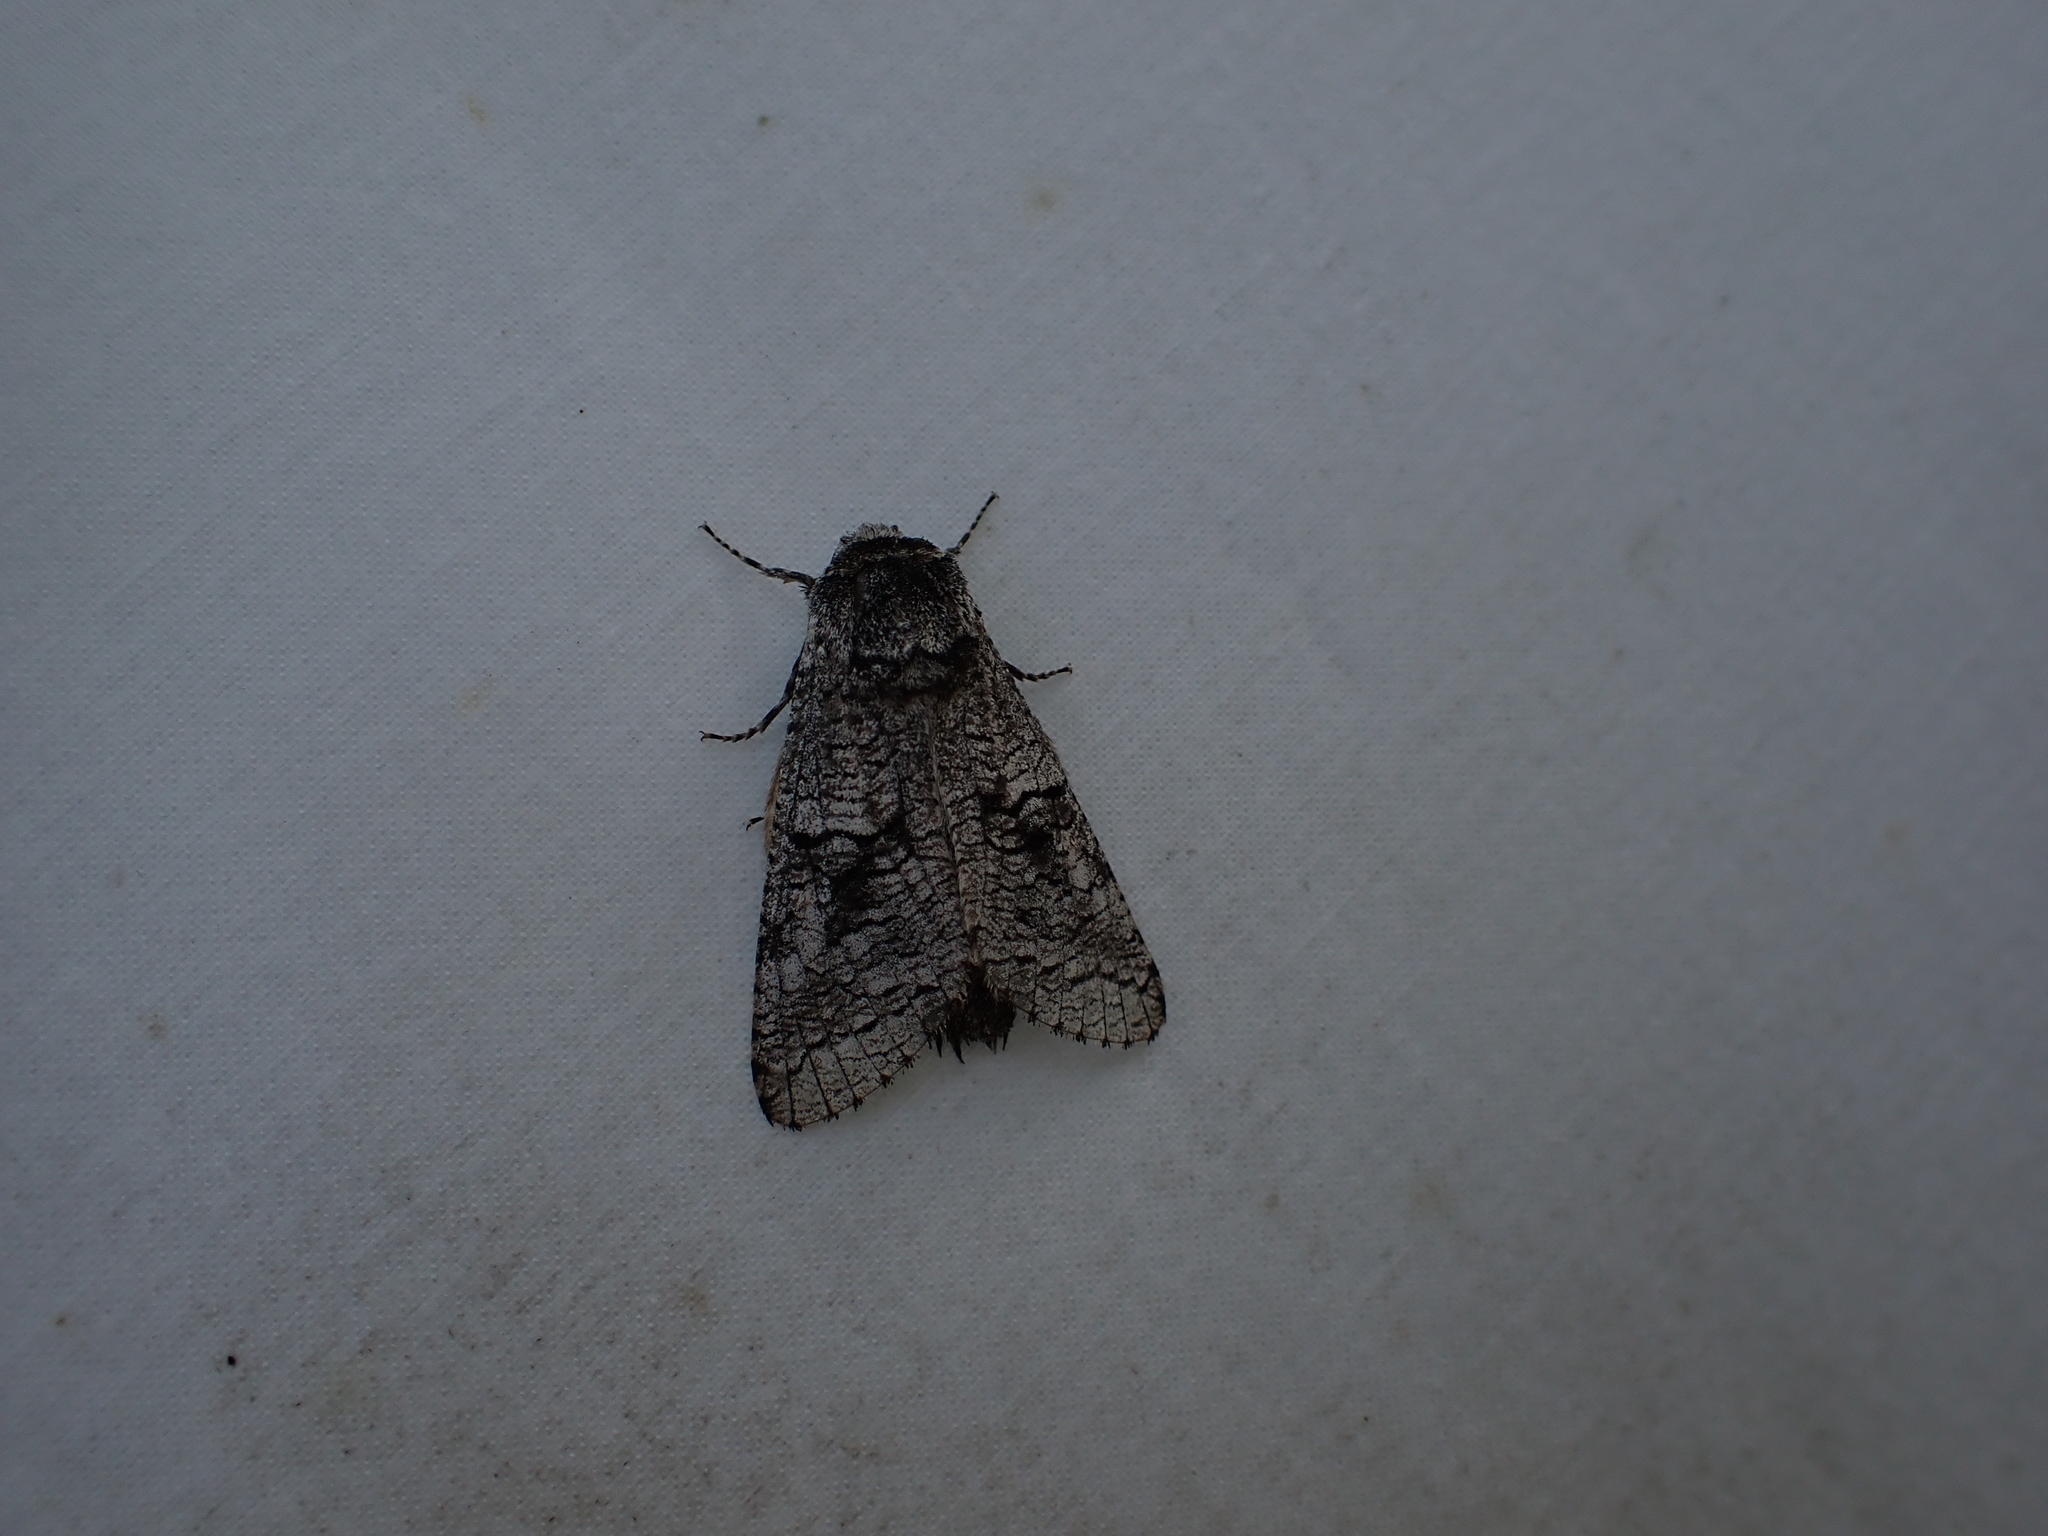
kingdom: Animalia
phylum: Arthropoda
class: Insecta
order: Lepidoptera
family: Cossidae
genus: Acossus
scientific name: Acossus populi
